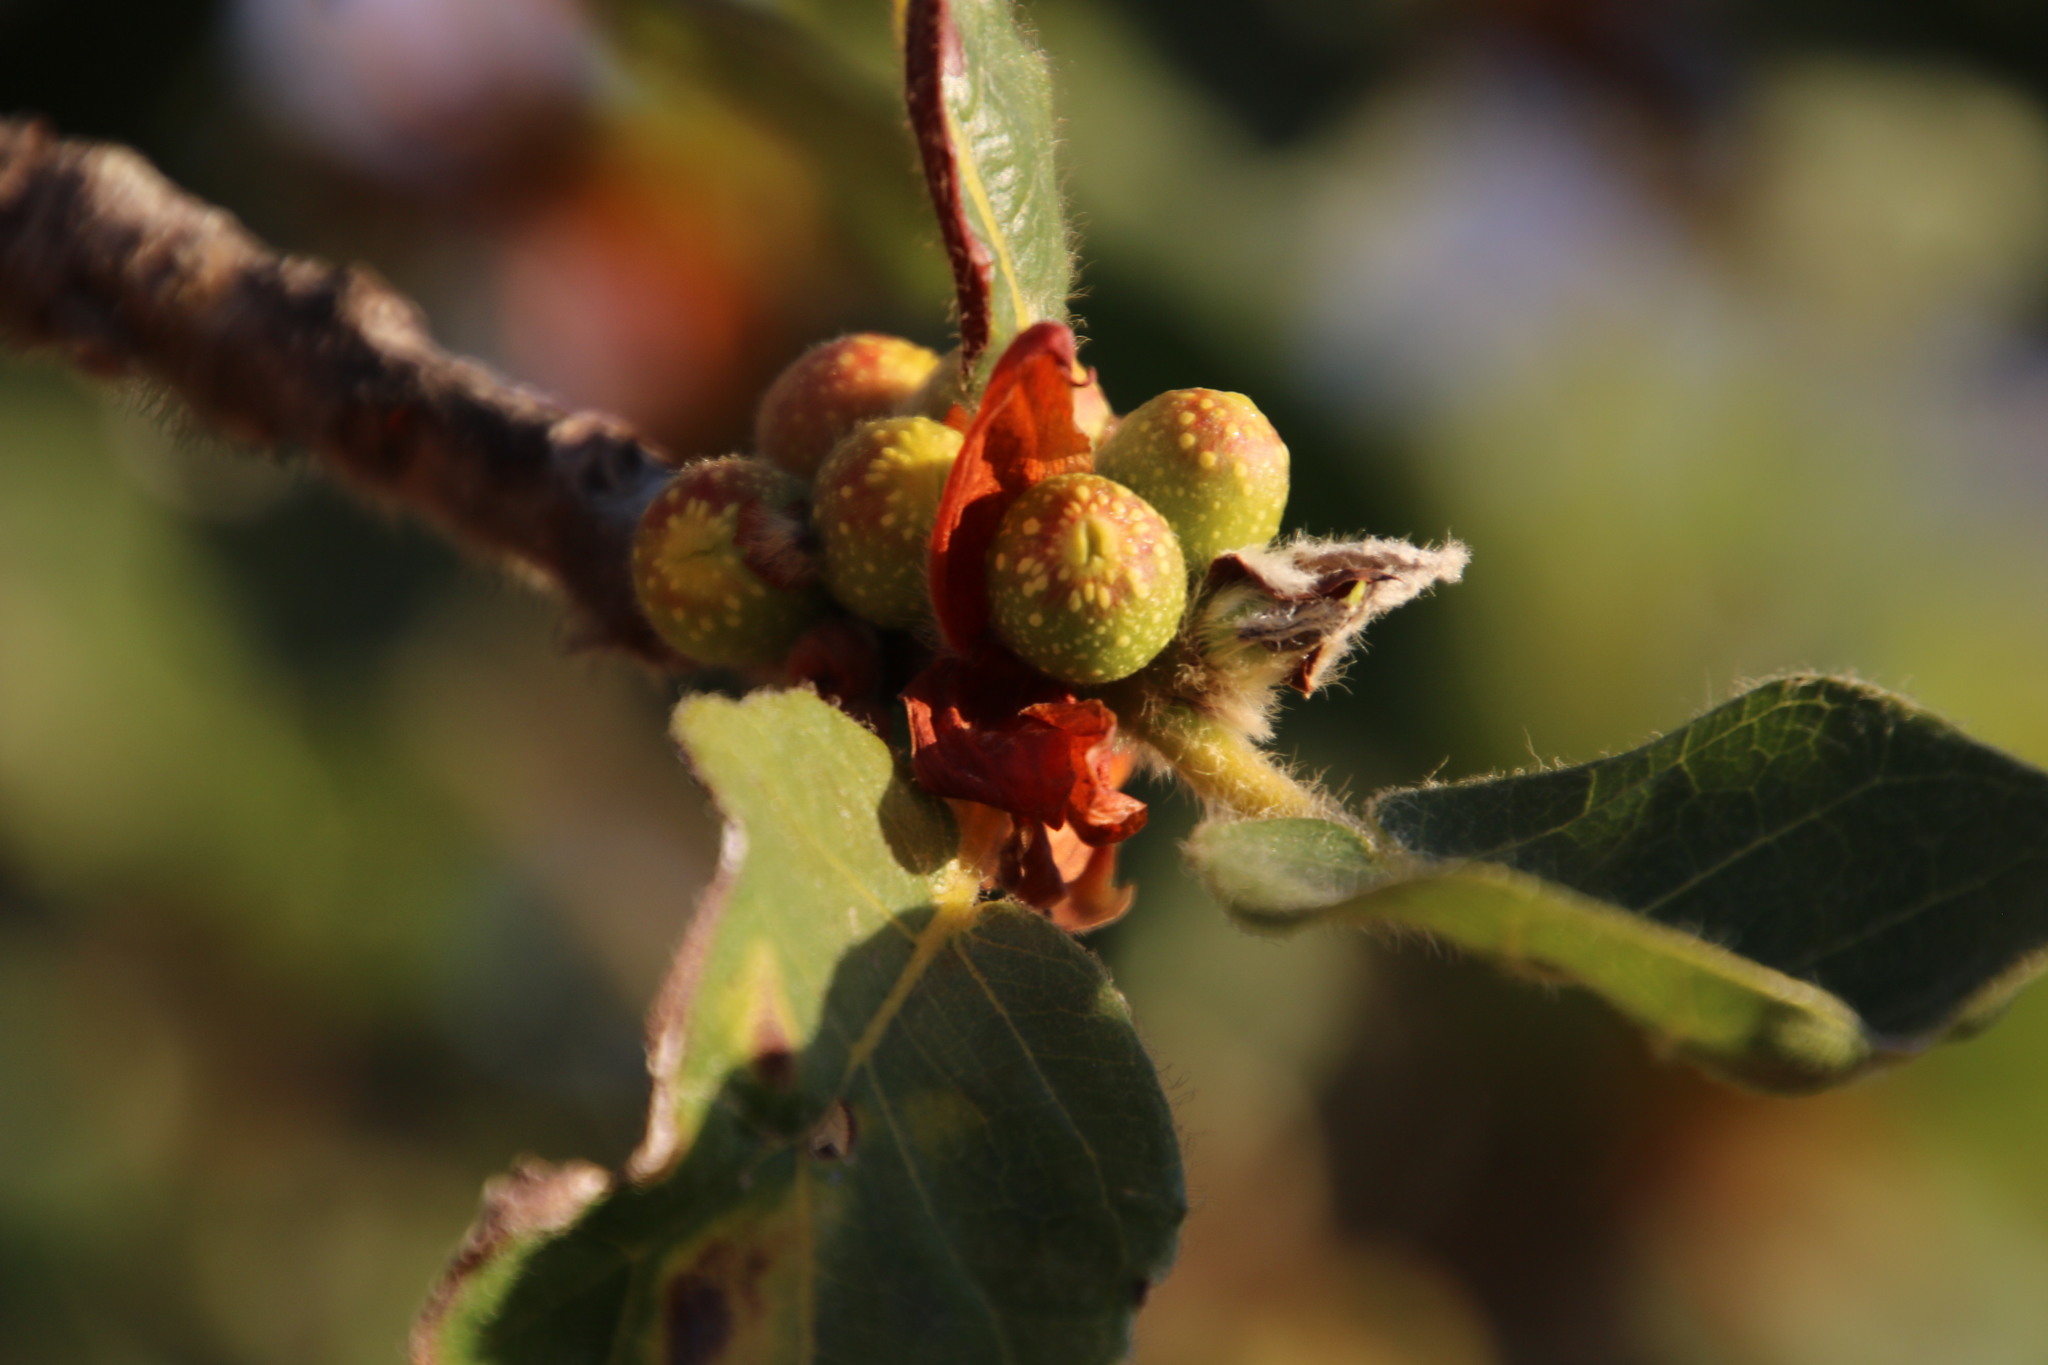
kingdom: Plantae
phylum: Tracheophyta
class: Magnoliopsida
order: Rosales
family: Moraceae
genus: Ficus
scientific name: Ficus glumosa
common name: Hairy rock fig
